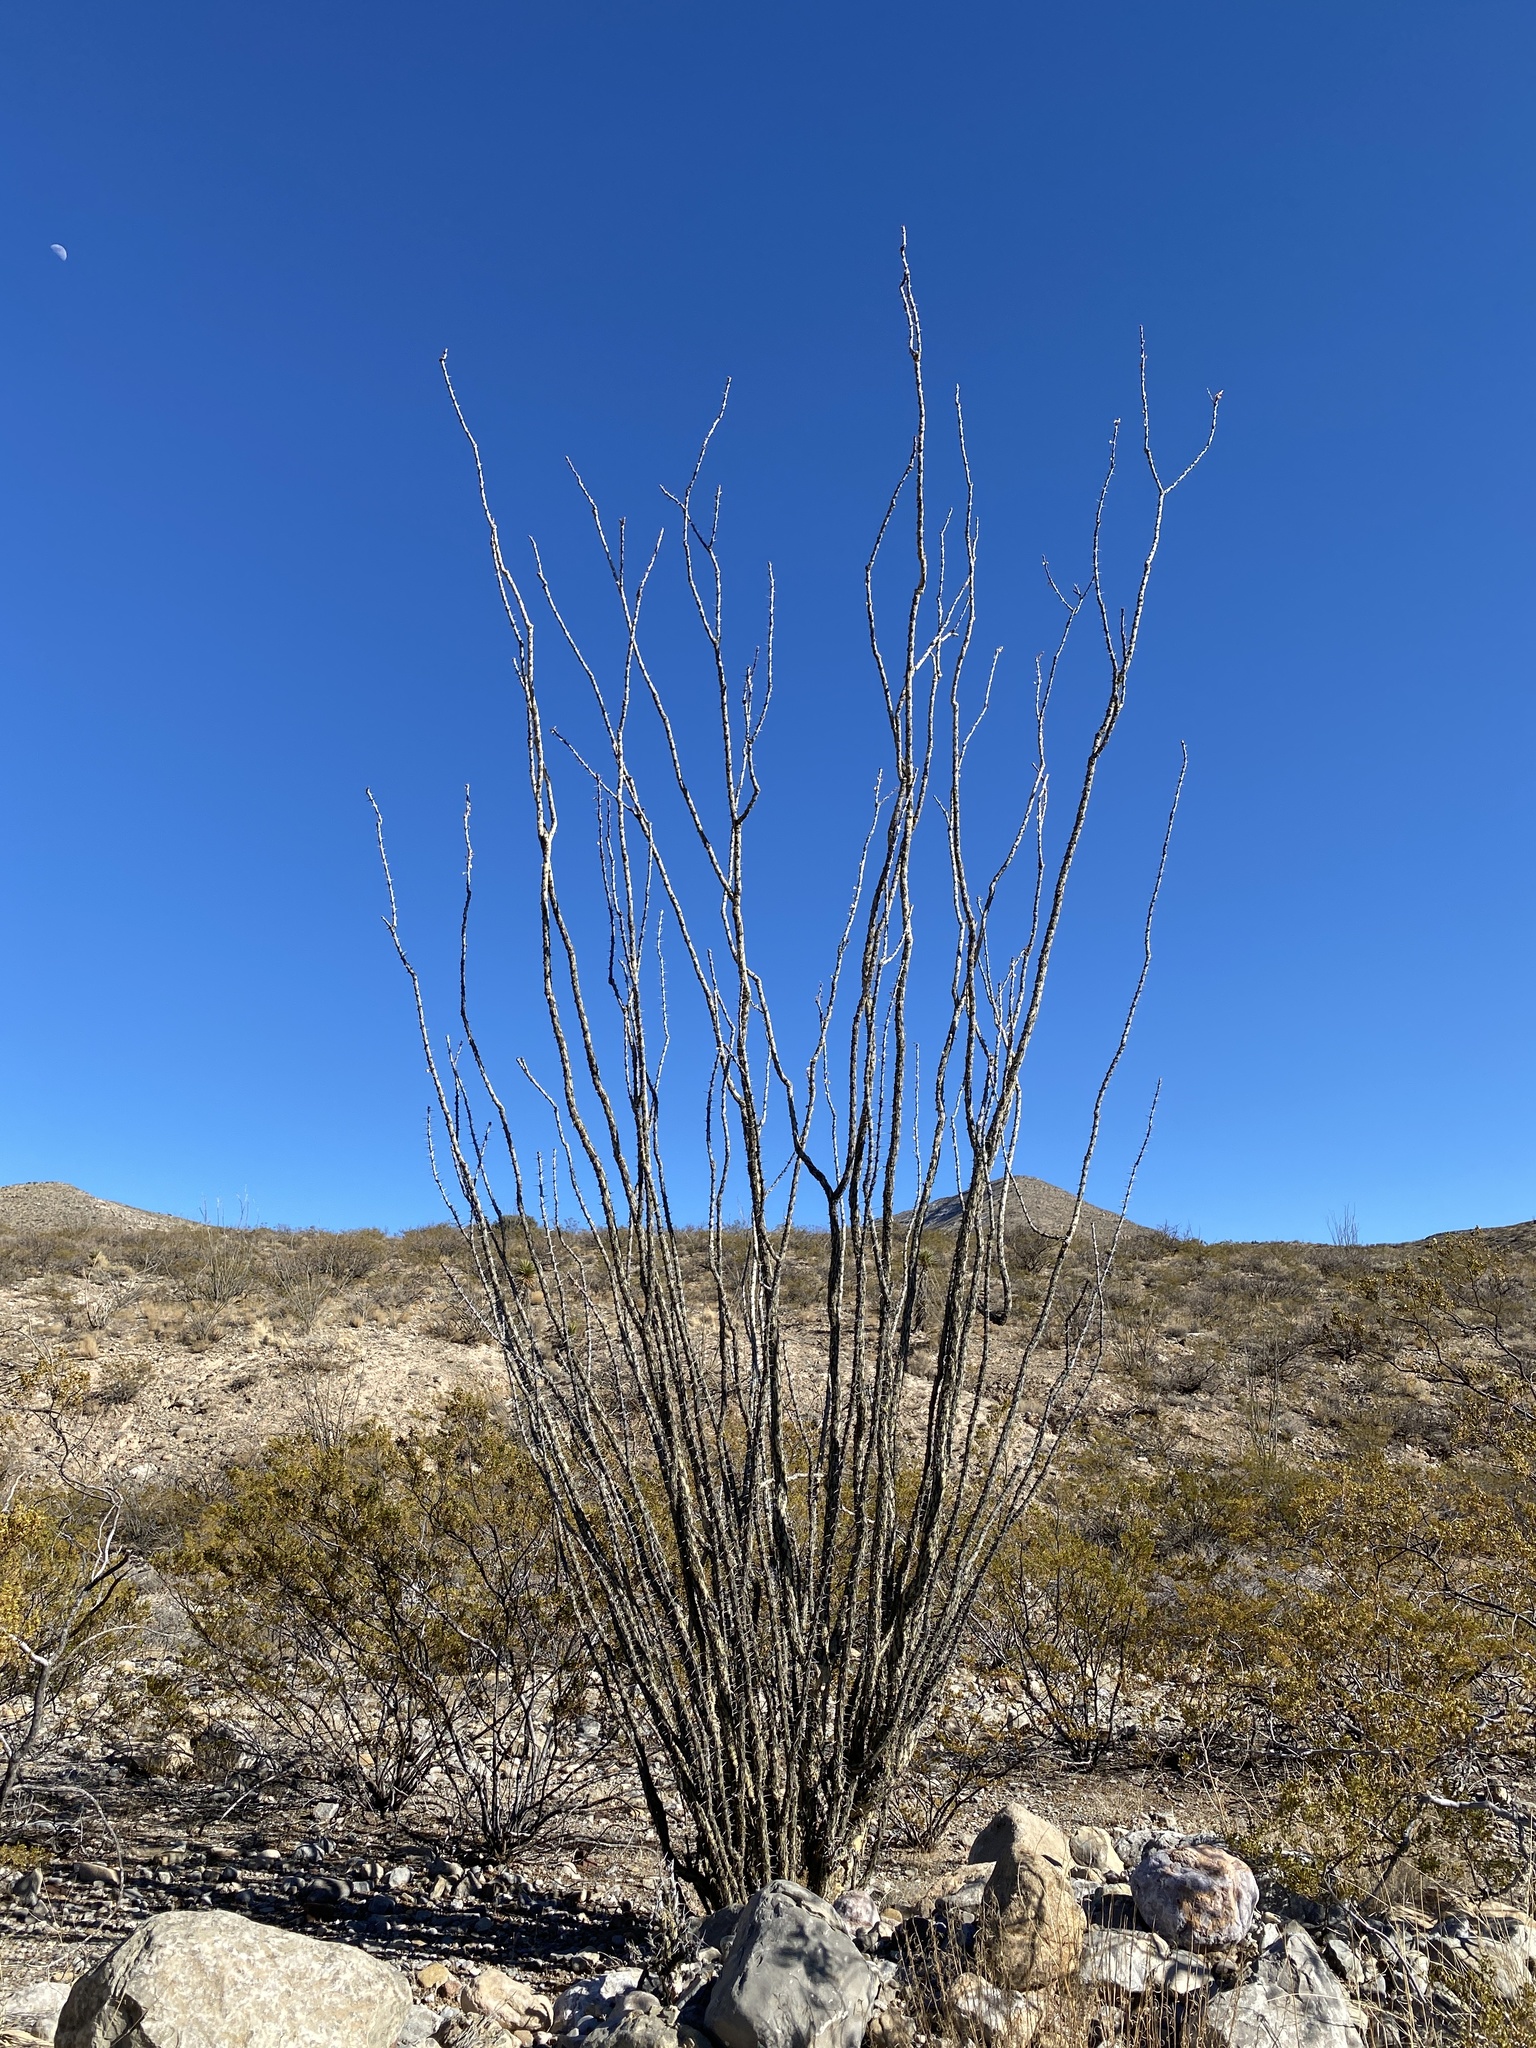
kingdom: Plantae
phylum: Tracheophyta
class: Magnoliopsida
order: Ericales
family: Fouquieriaceae
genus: Fouquieria
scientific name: Fouquieria splendens
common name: Vine-cactus
